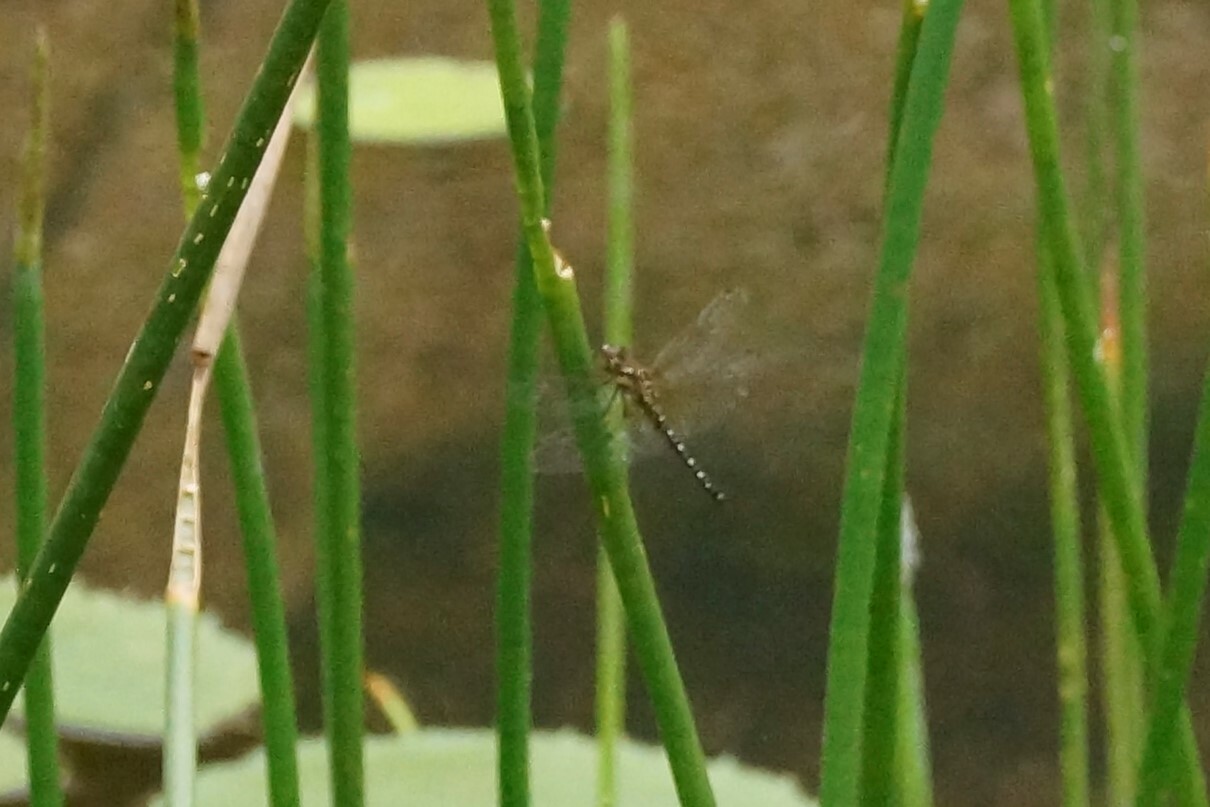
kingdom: Animalia
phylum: Arthropoda
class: Insecta
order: Odonata
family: Libellulidae
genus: Hydrobasileus
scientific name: Hydrobasileus brevistylus
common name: Water prince
